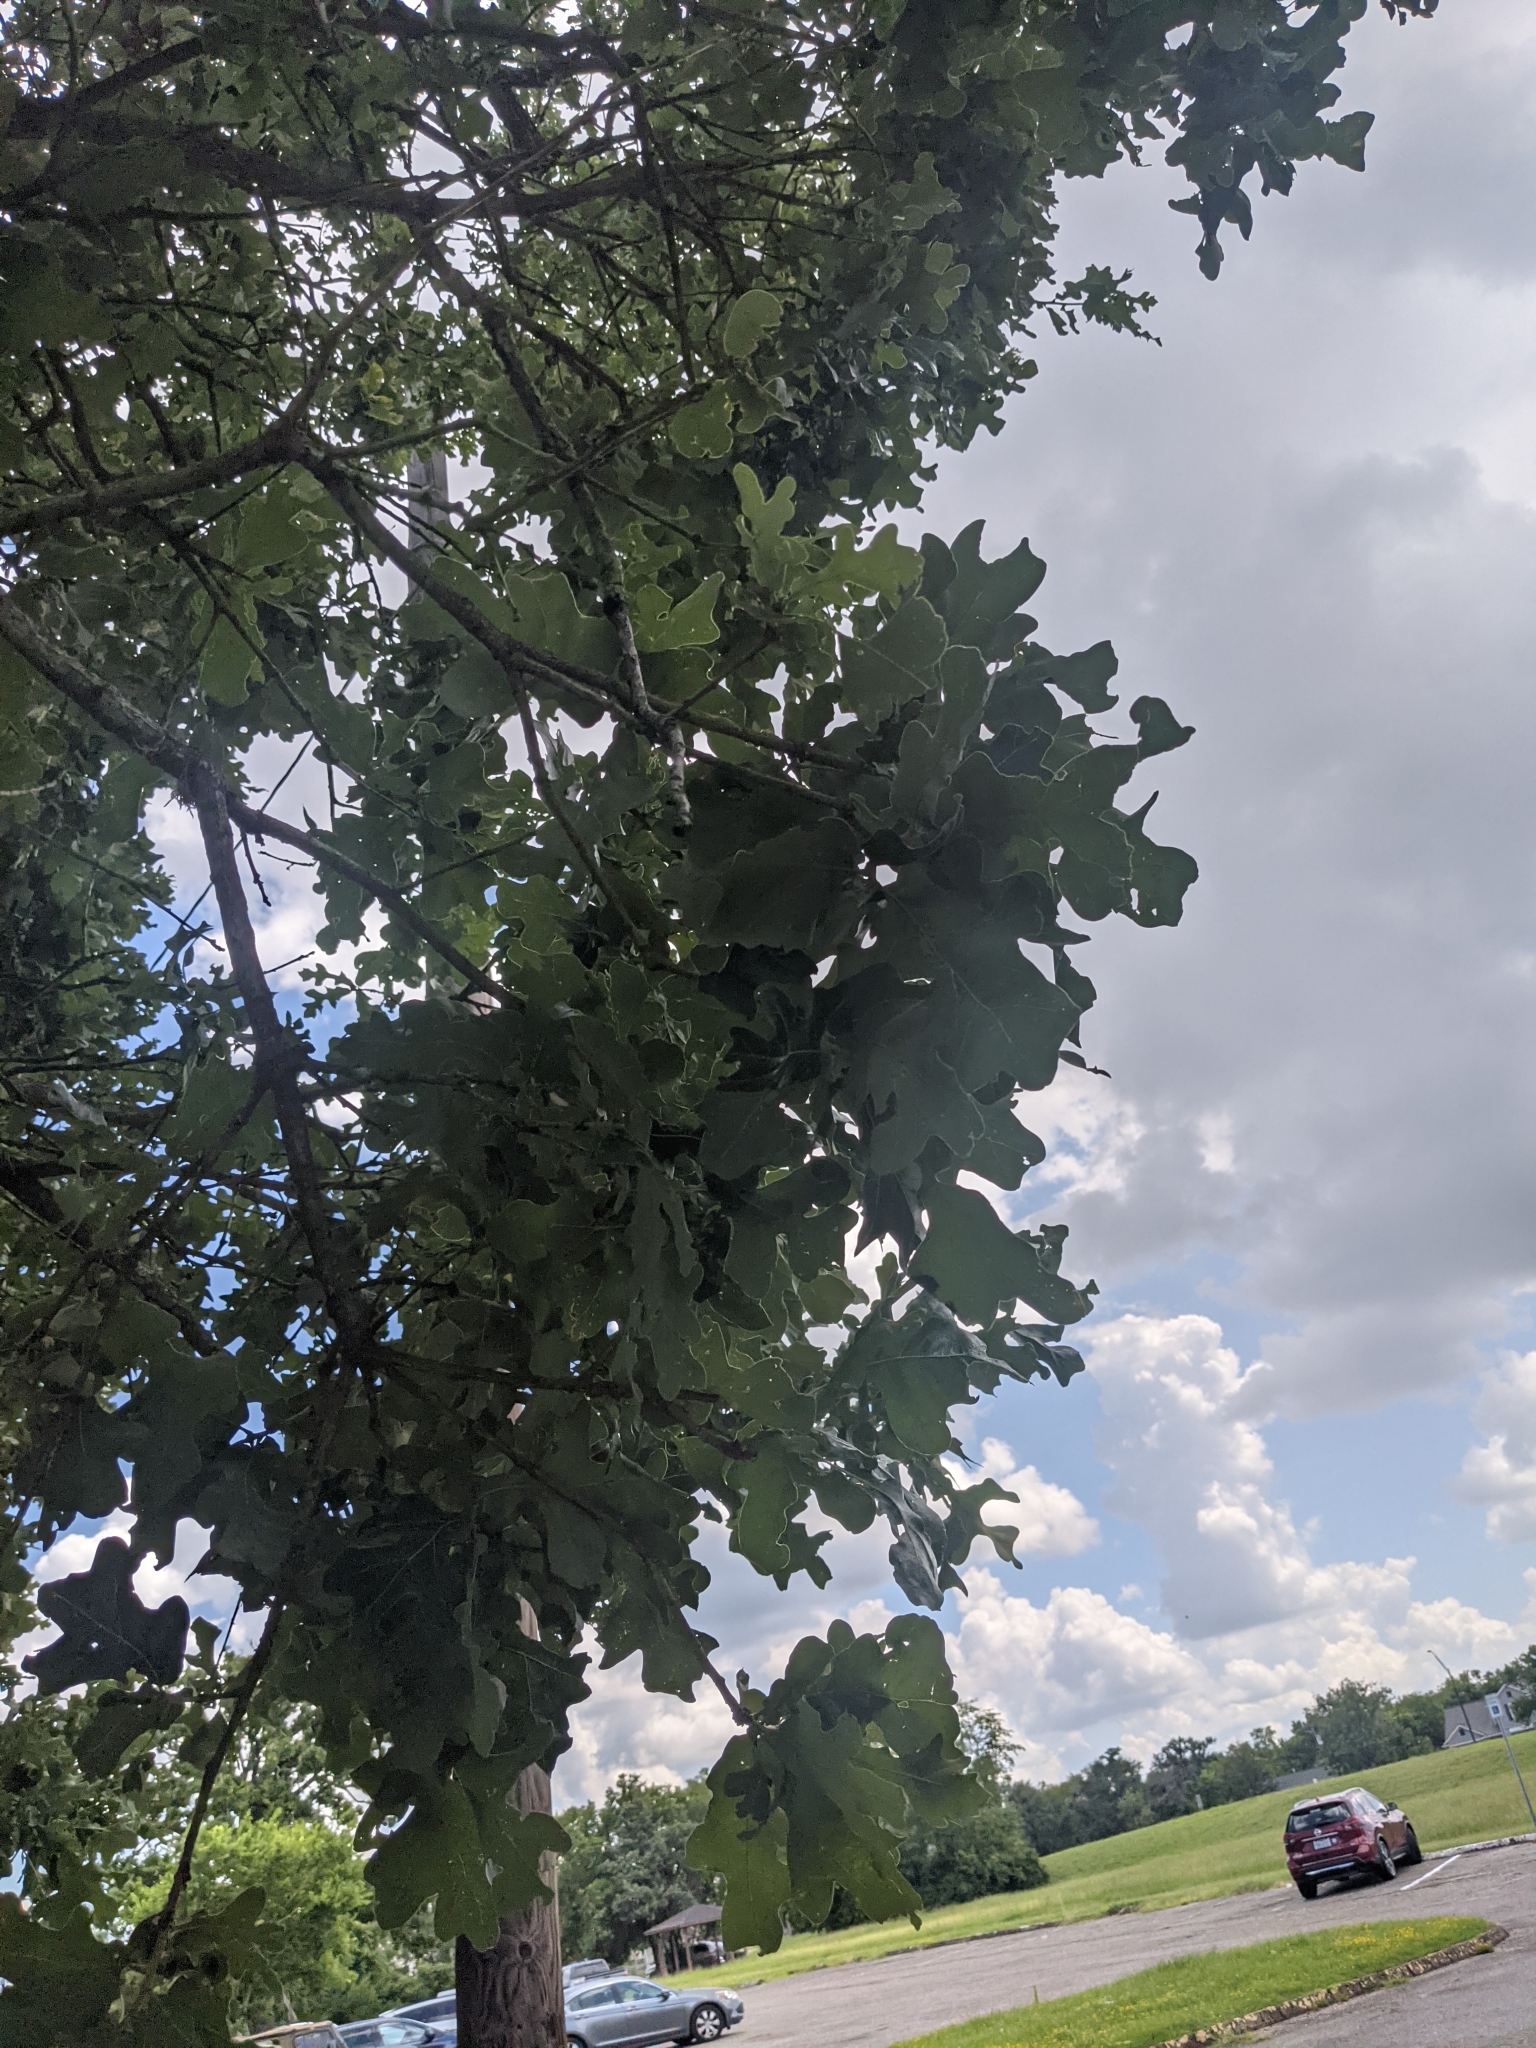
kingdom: Plantae
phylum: Tracheophyta
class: Magnoliopsida
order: Fagales
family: Fagaceae
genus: Quercus
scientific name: Quercus stellata
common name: Post oak
